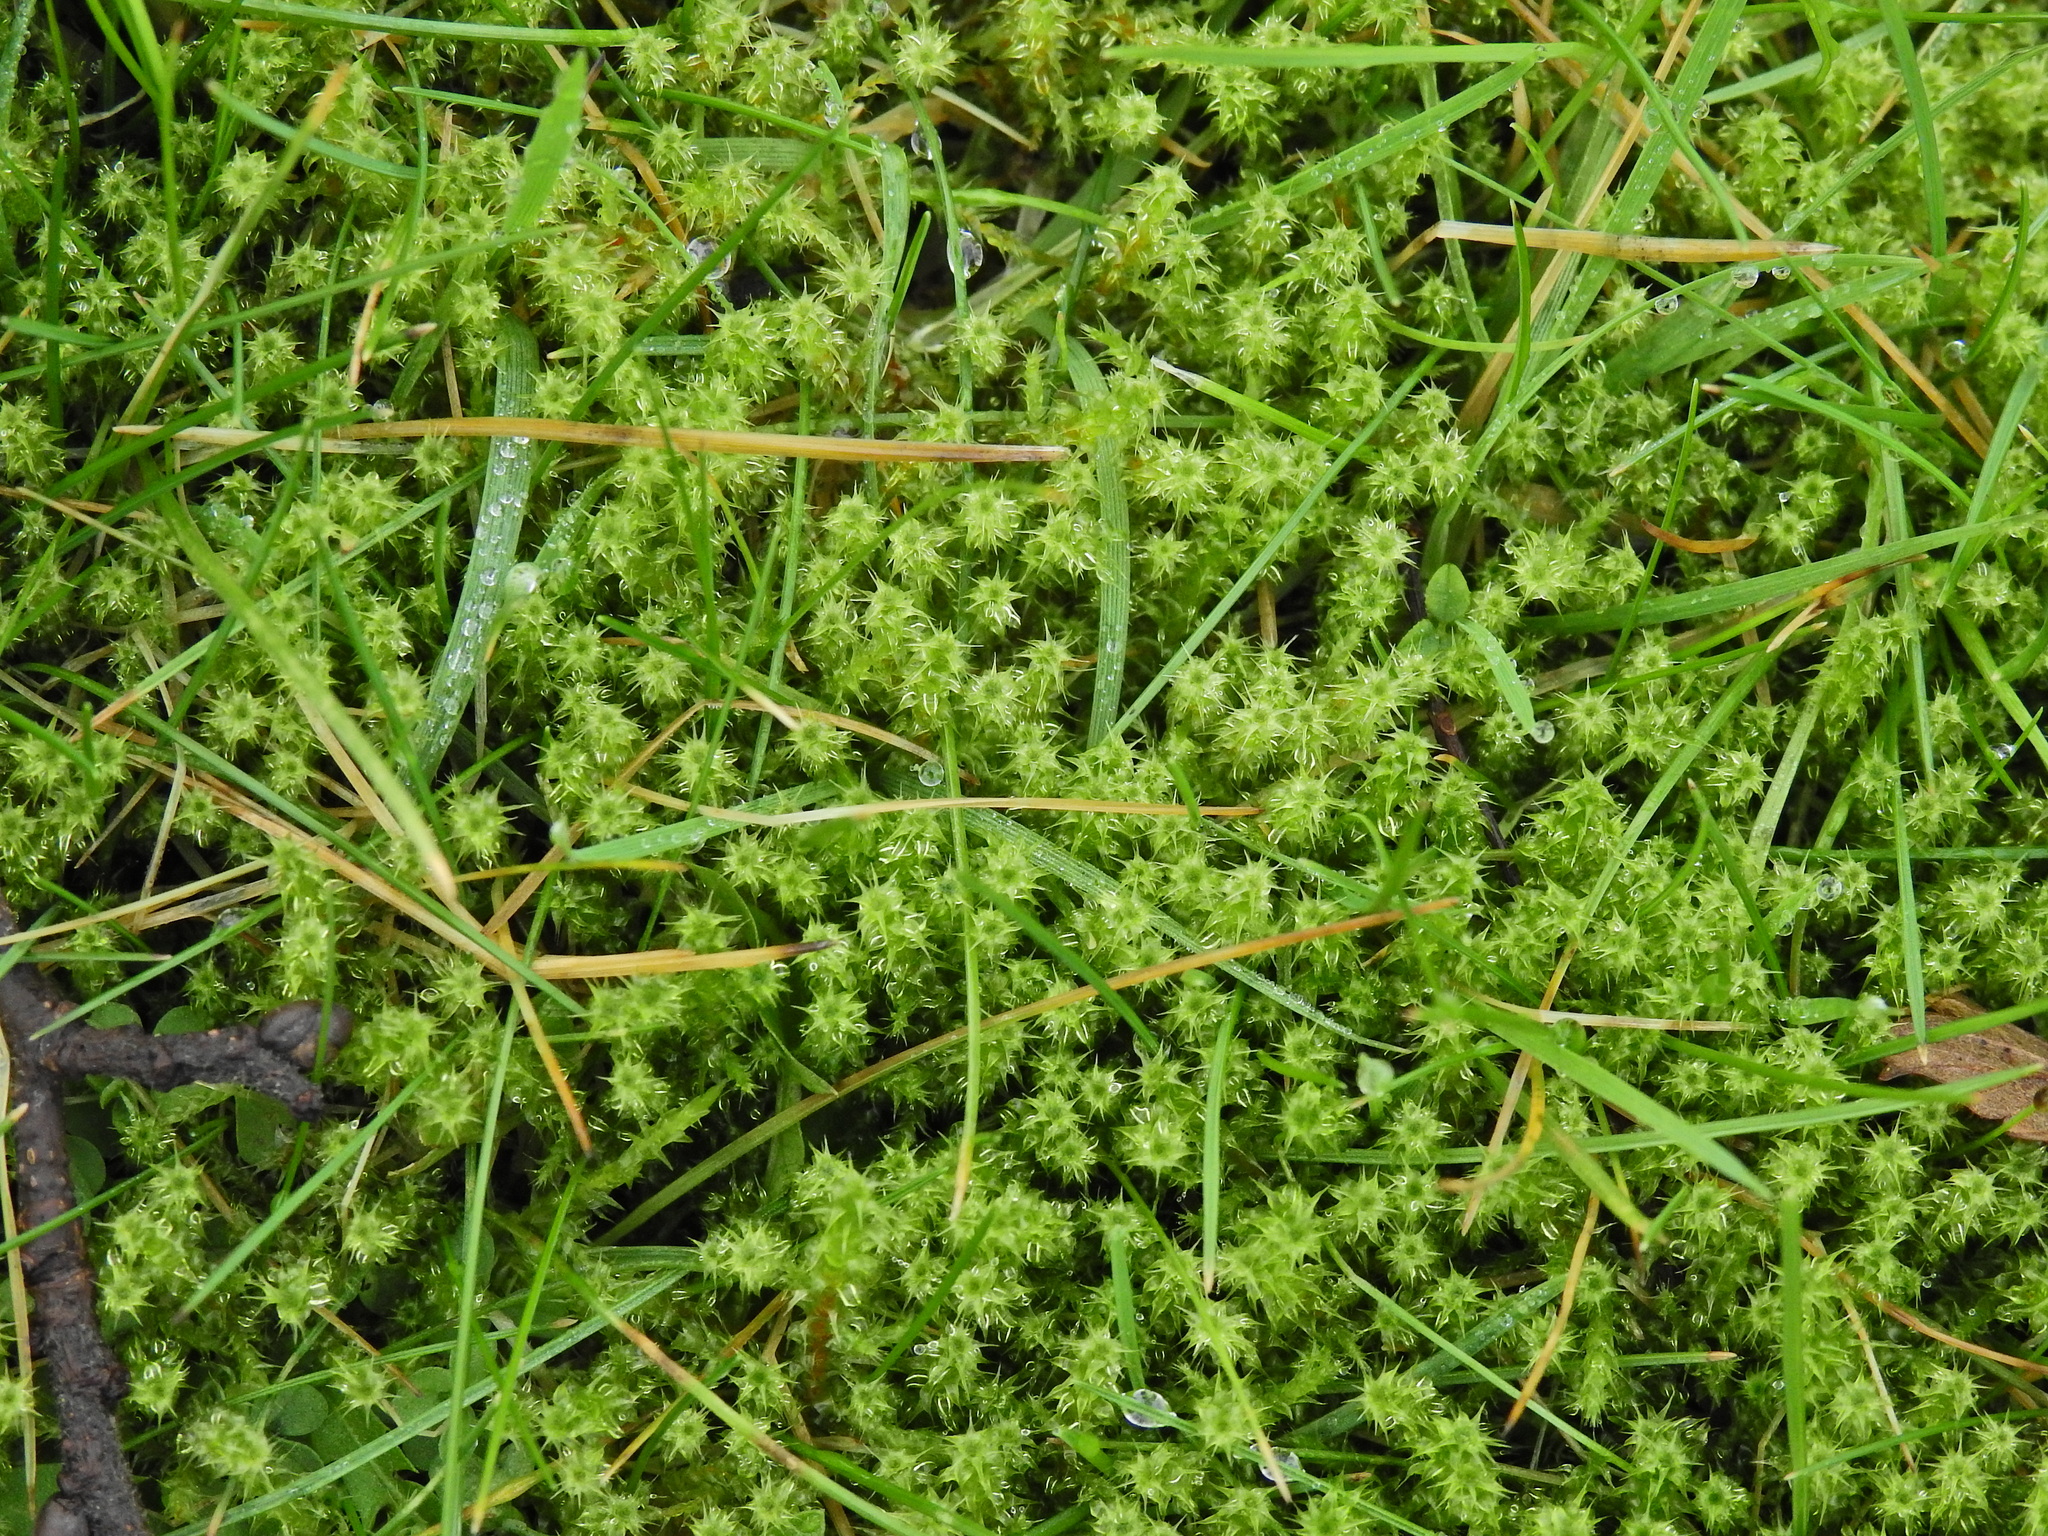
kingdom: Plantae
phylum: Bryophyta
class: Bryopsida
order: Hypnales
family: Hylocomiaceae
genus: Rhytidiadelphus
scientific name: Rhytidiadelphus squarrosus
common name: Springy turf-moss
